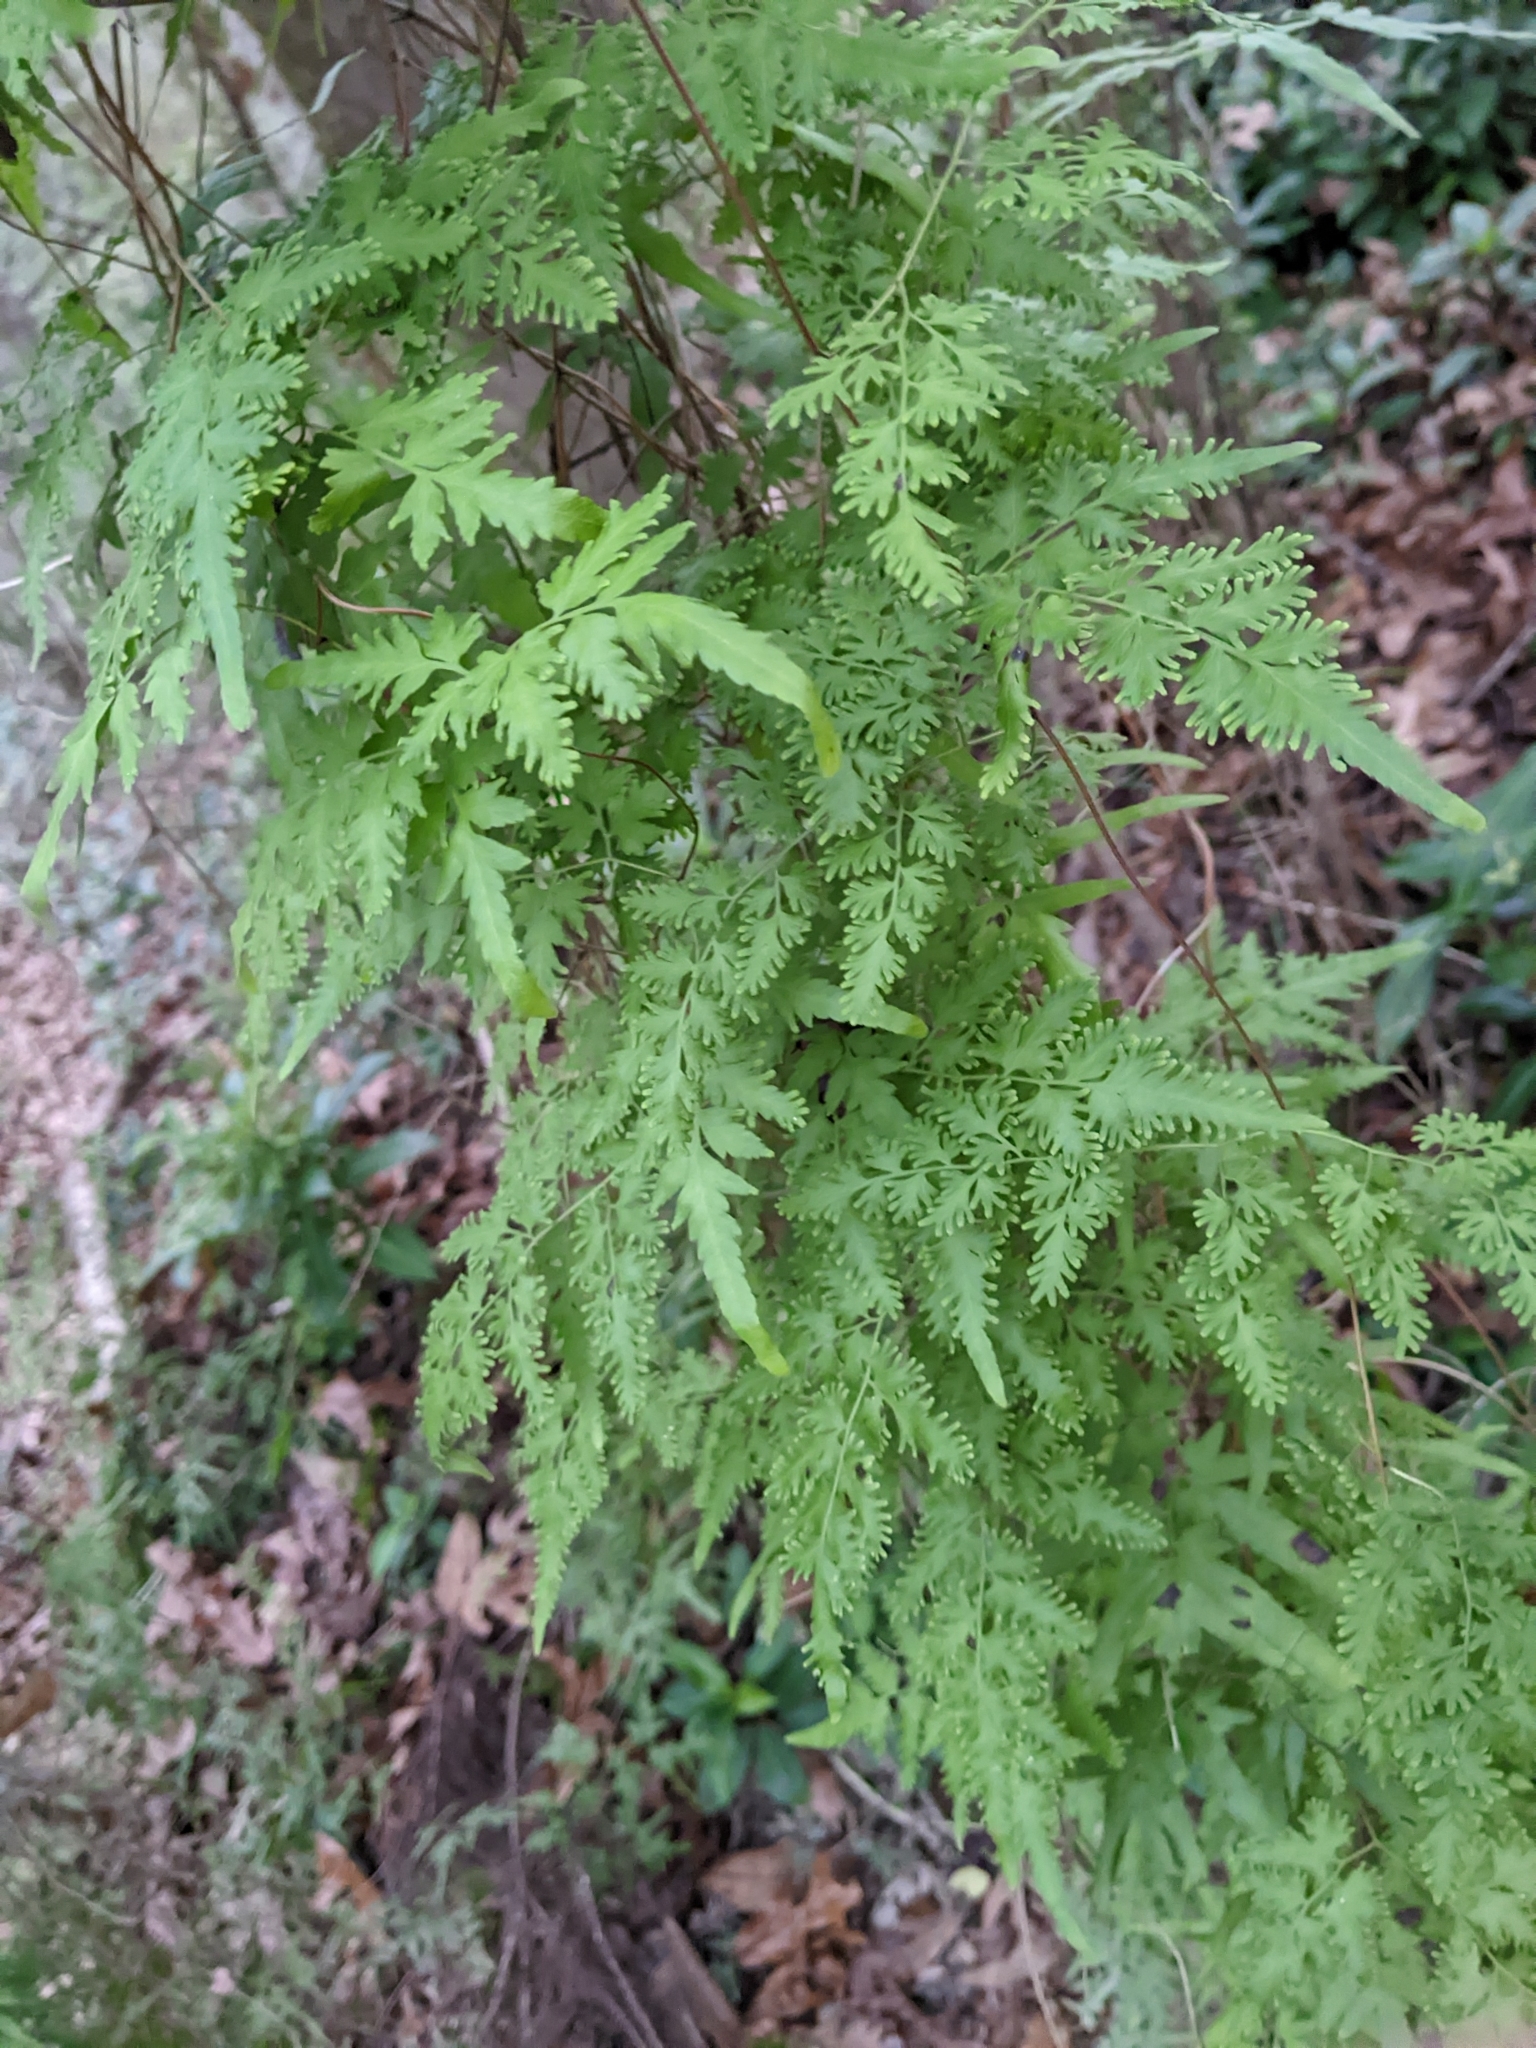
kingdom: Plantae
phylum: Tracheophyta
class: Polypodiopsida
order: Schizaeales
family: Lygodiaceae
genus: Lygodium
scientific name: Lygodium japonicum
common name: Japanese climbing fern
